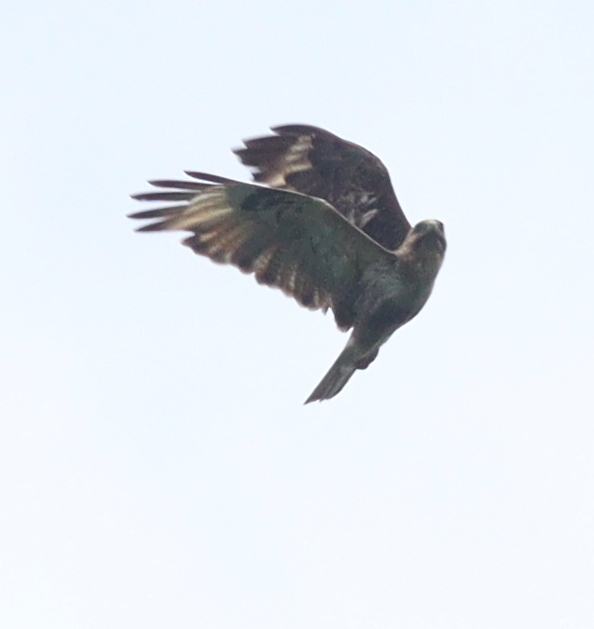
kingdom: Animalia
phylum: Chordata
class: Aves
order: Accipitriformes
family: Accipitridae
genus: Buteo
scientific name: Buteo japonicus
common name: Eastern buzzard
